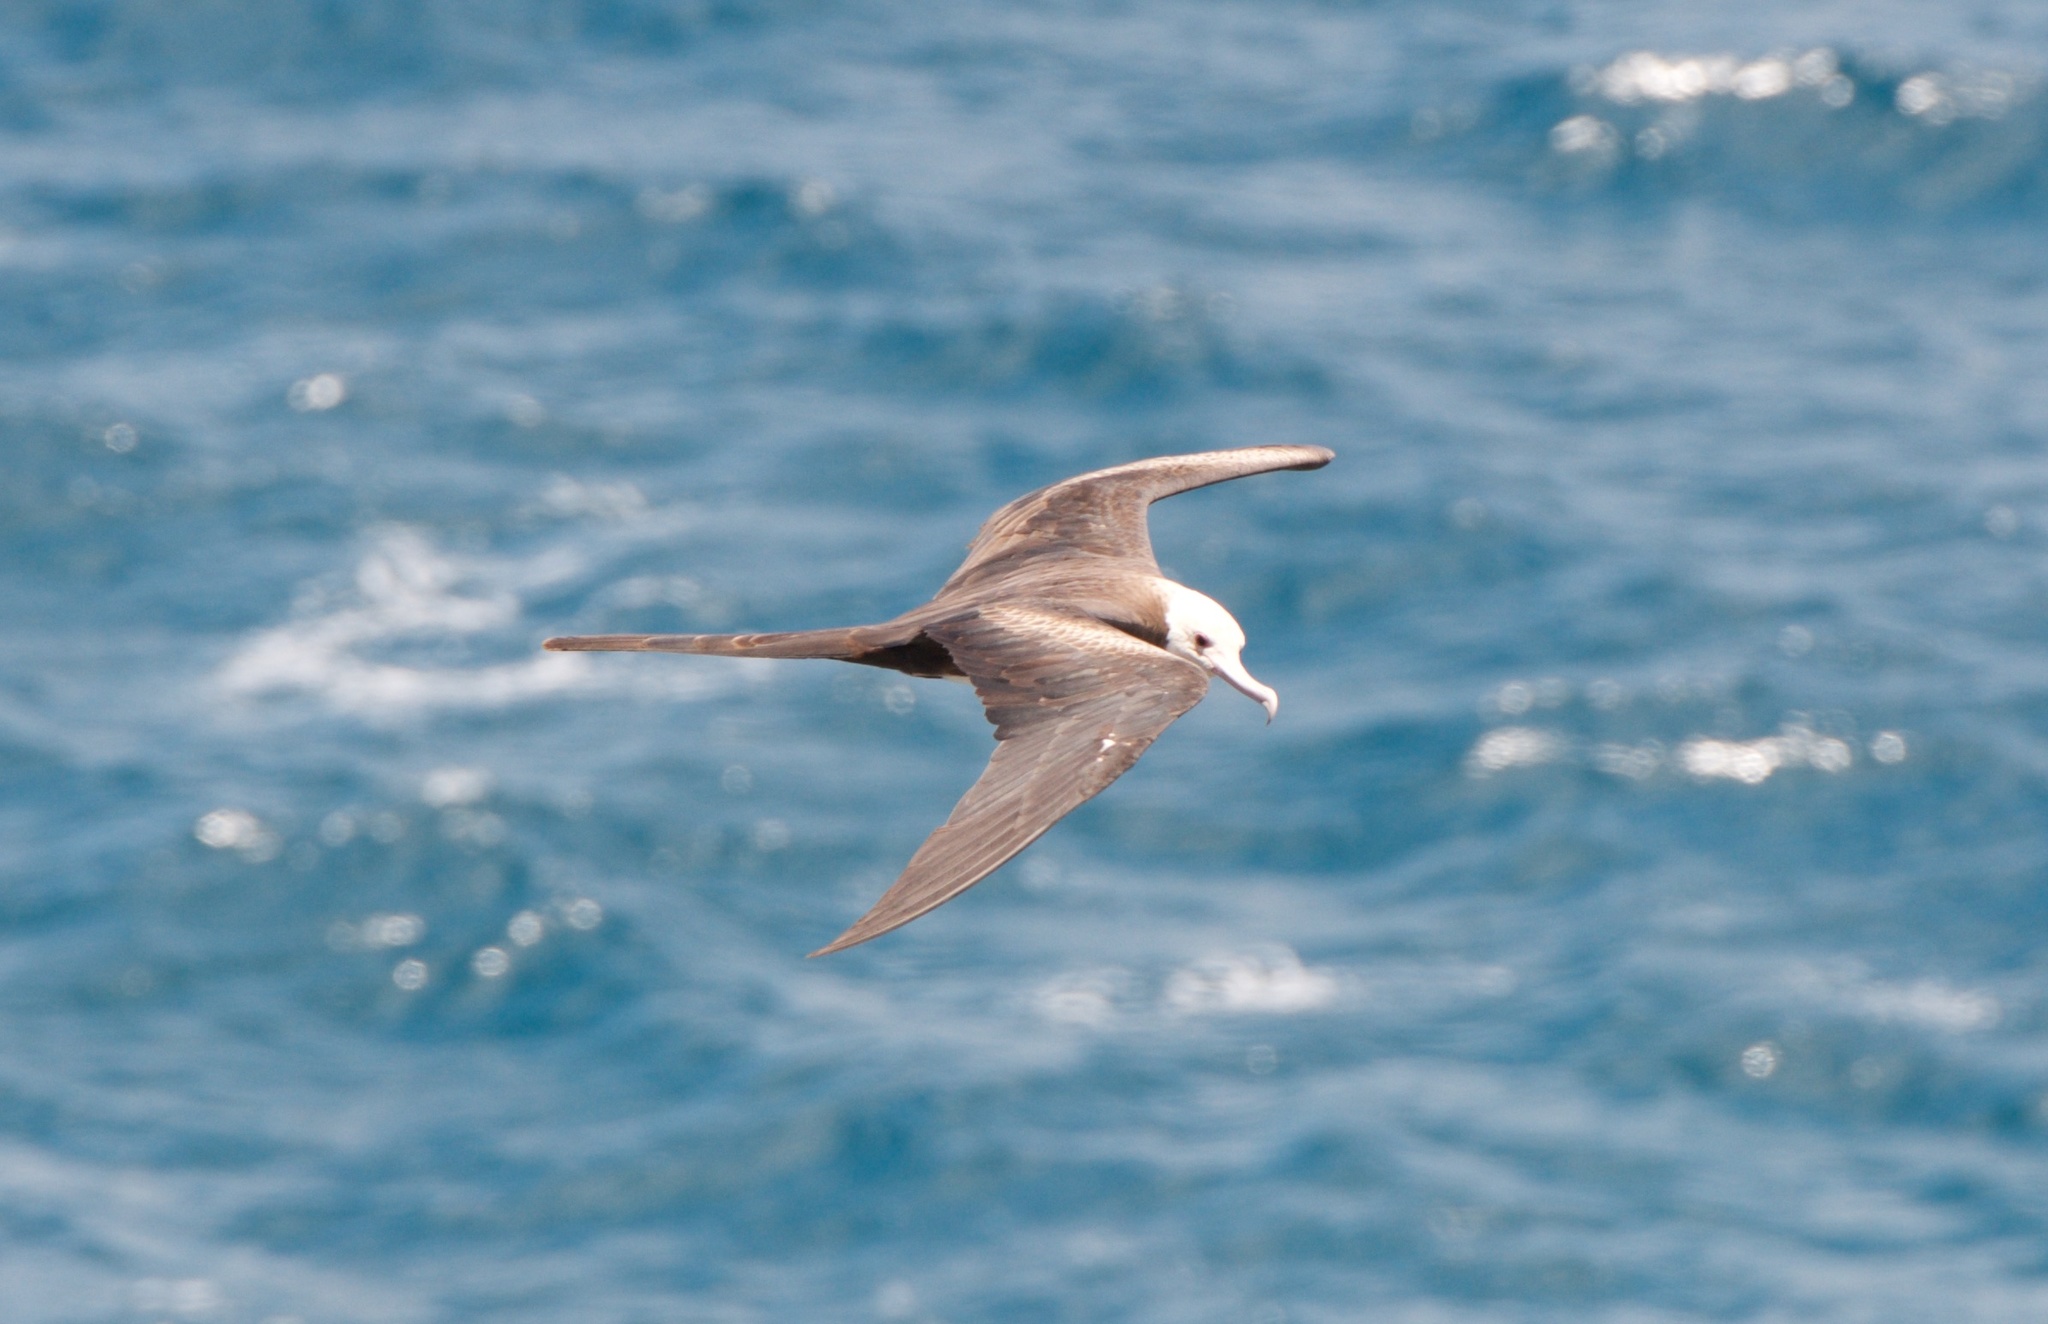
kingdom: Animalia
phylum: Chordata
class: Aves
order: Suliformes
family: Fregatidae
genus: Fregata
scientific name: Fregata minor
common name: Great frigatebird
